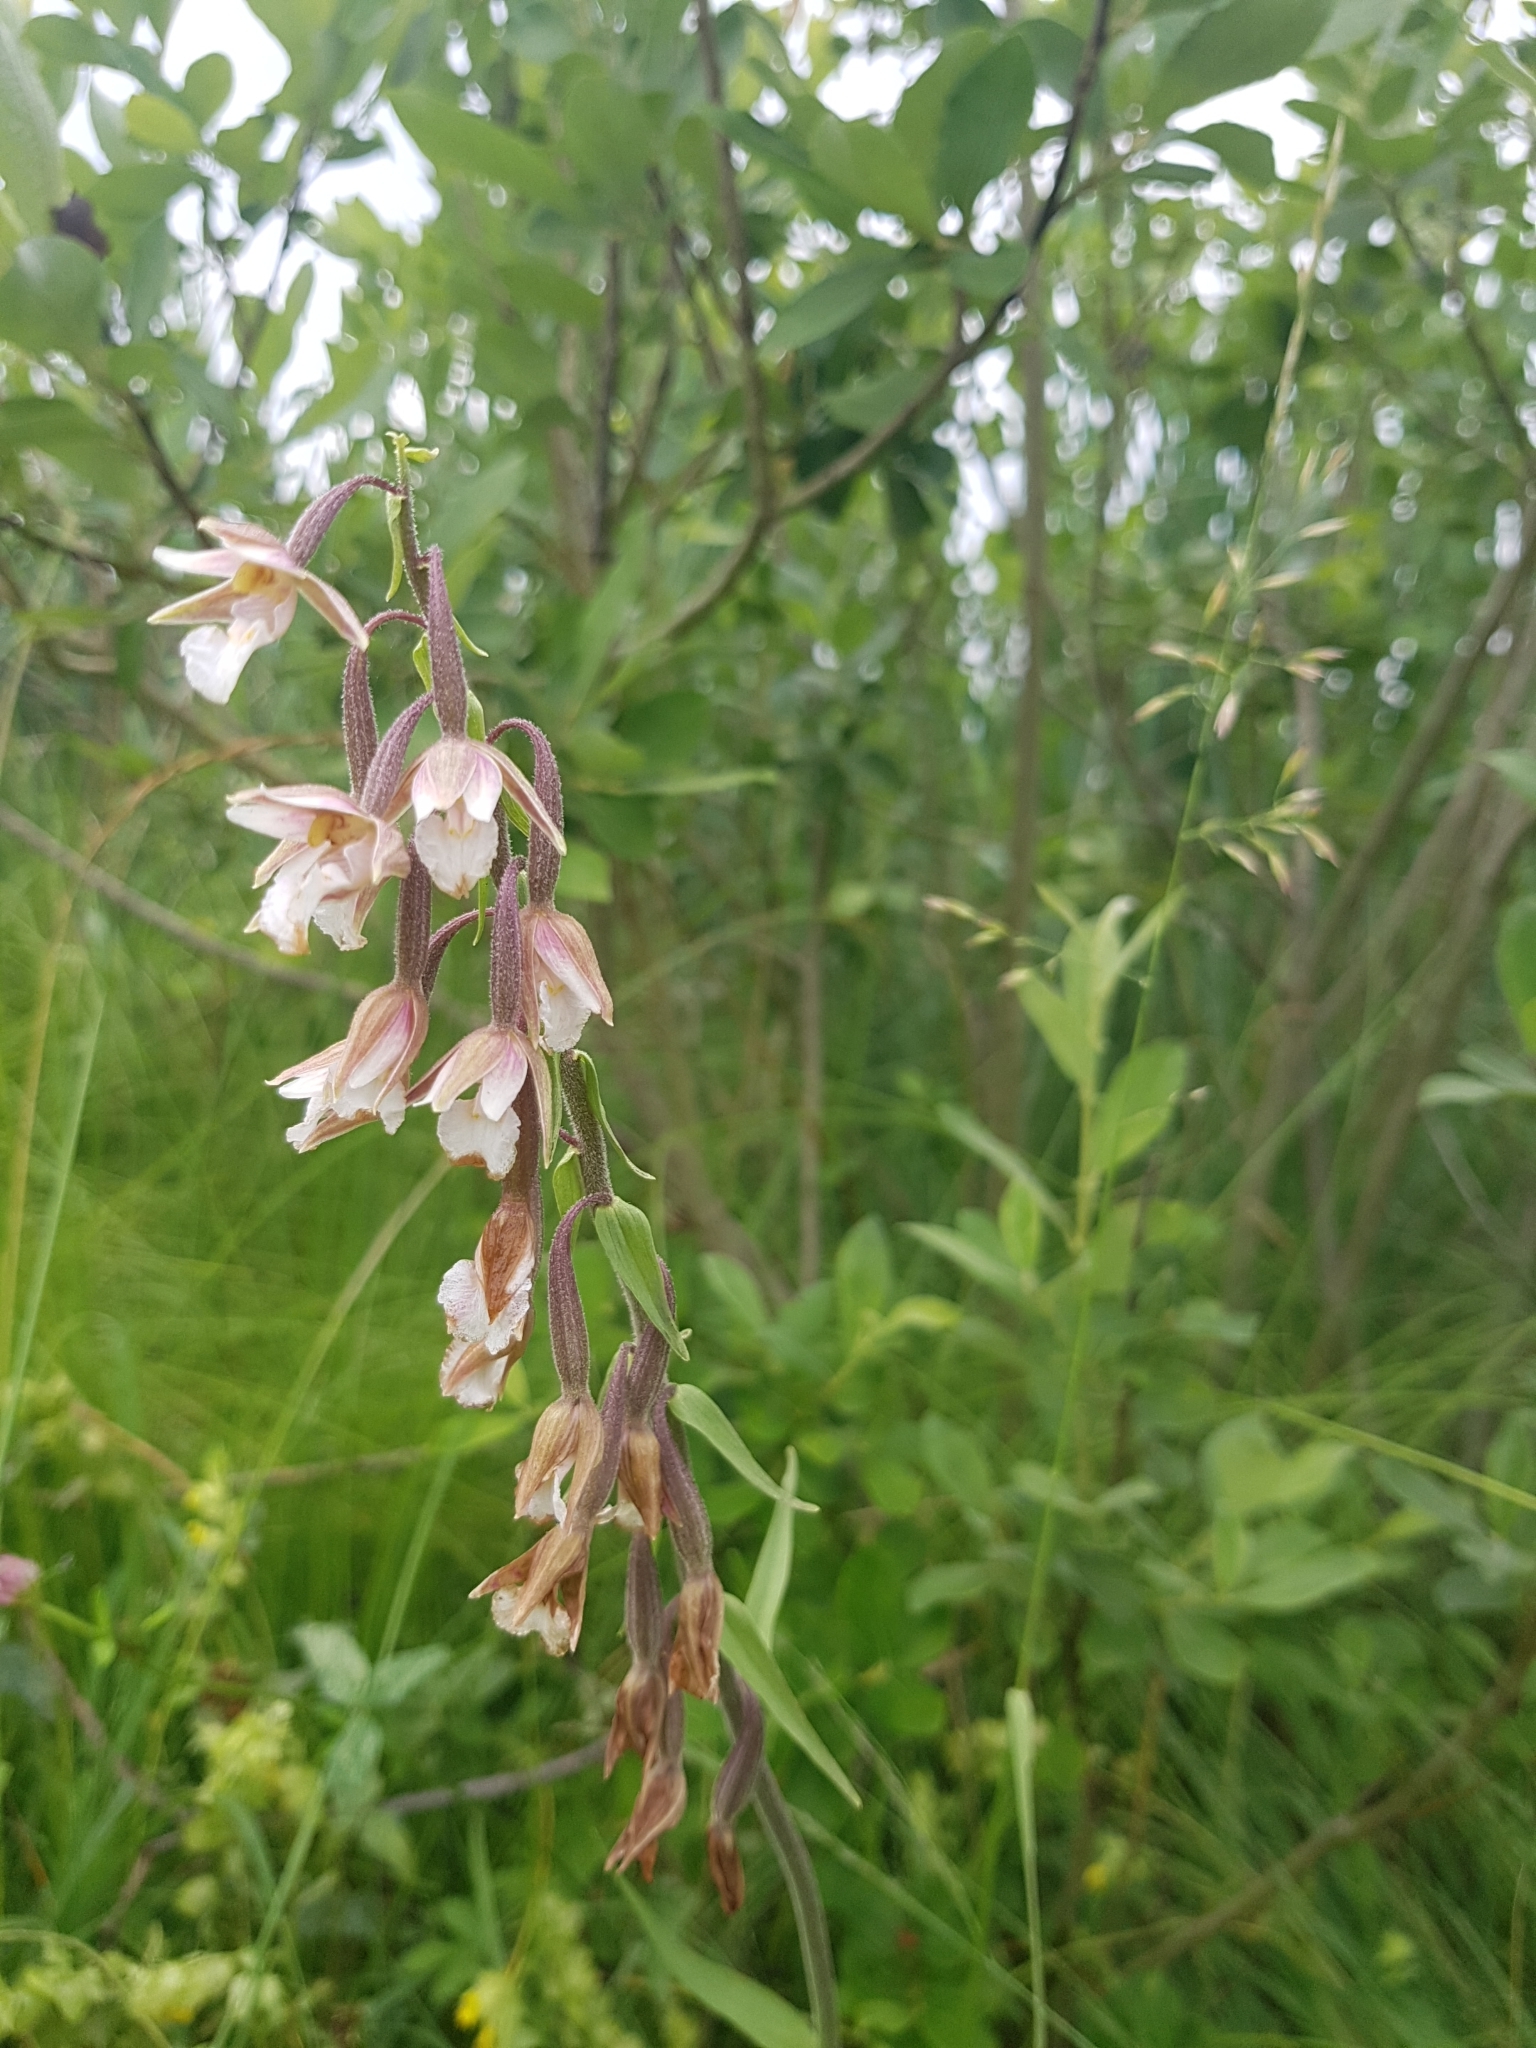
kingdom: Plantae
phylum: Tracheophyta
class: Liliopsida
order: Asparagales
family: Orchidaceae
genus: Epipactis
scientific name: Epipactis palustris
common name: Marsh helleborine
